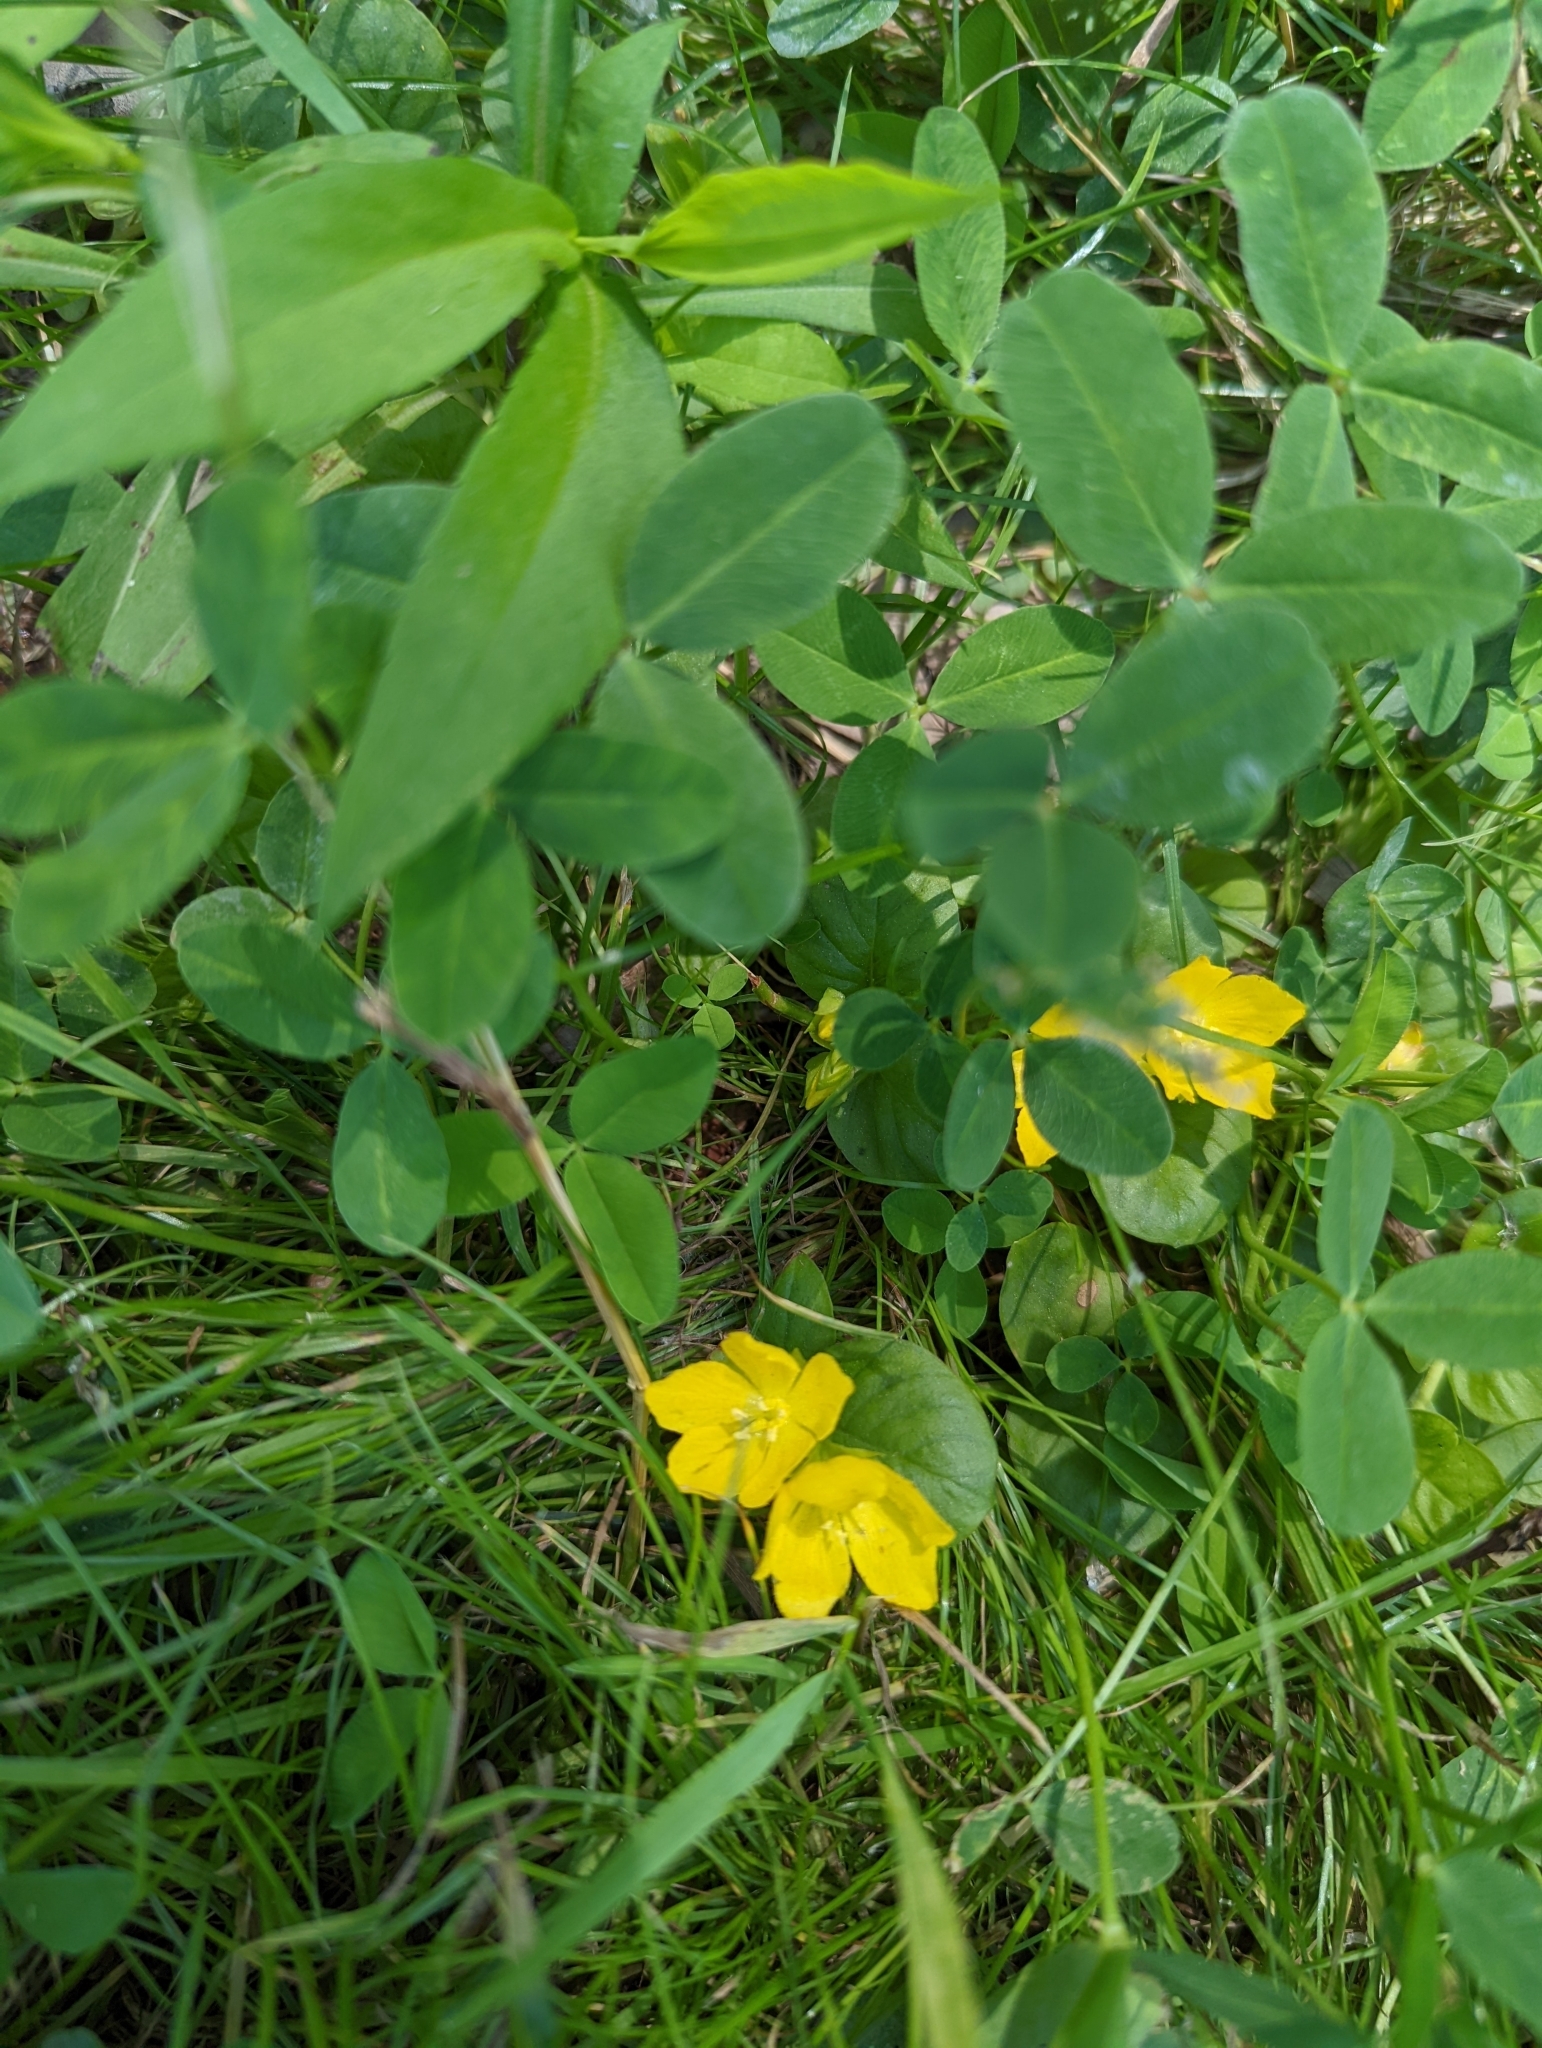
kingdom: Plantae
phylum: Tracheophyta
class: Magnoliopsida
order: Ericales
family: Primulaceae
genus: Lysimachia
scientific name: Lysimachia nummularia
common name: Moneywort
